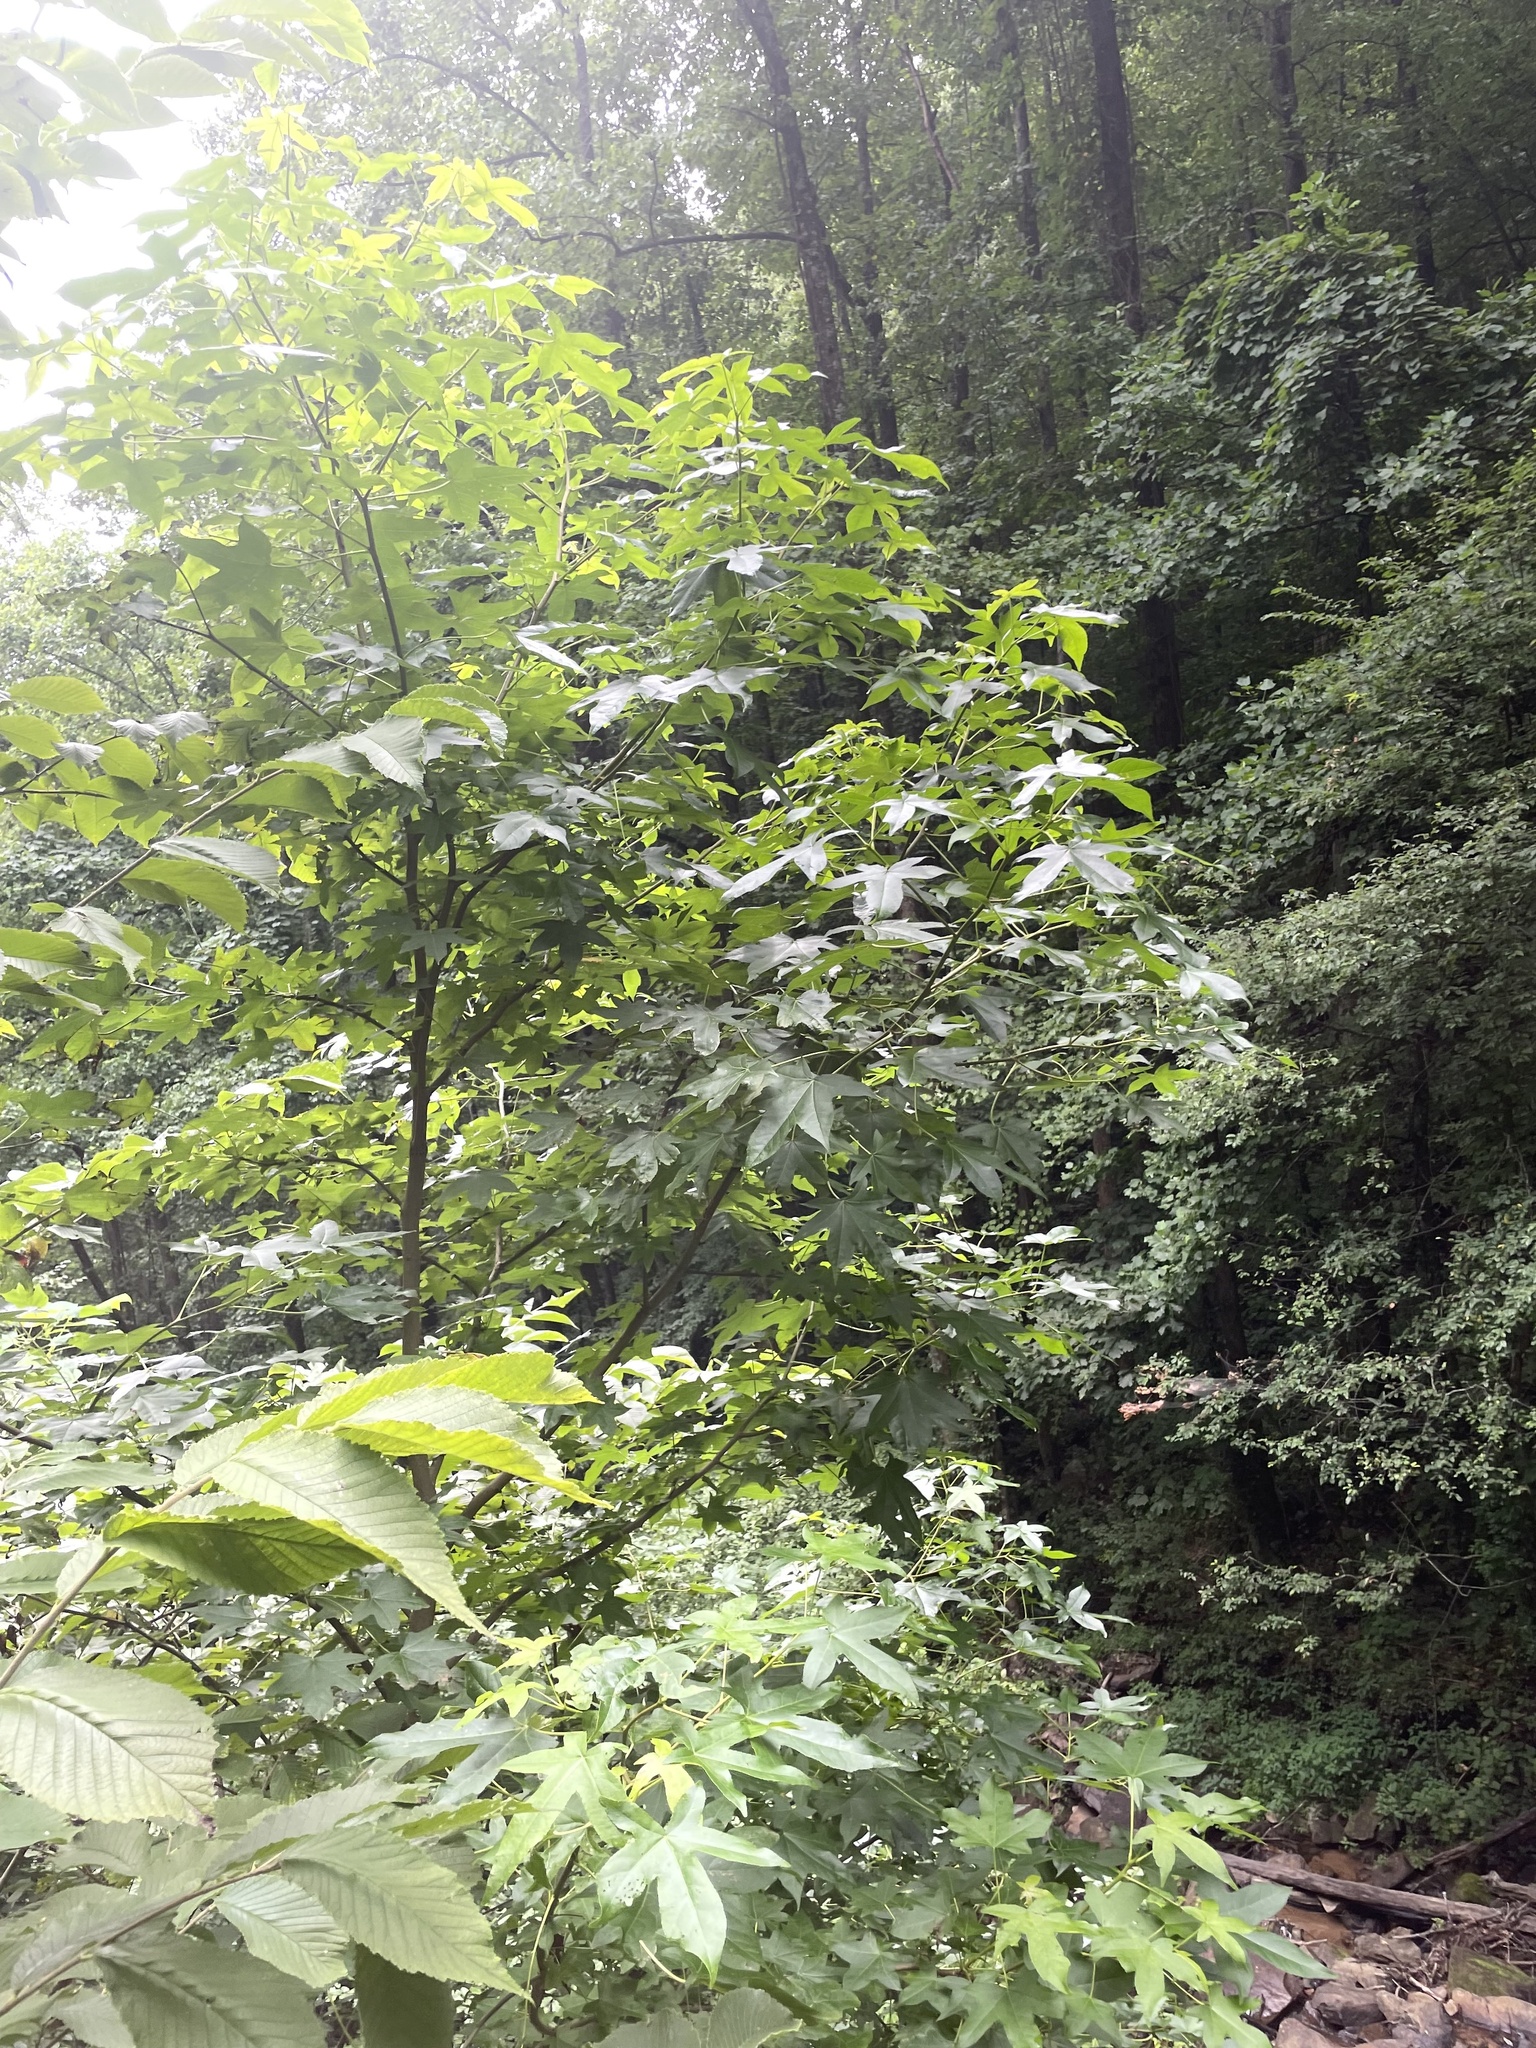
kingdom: Plantae
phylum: Tracheophyta
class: Magnoliopsida
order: Saxifragales
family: Altingiaceae
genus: Liquidambar
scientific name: Liquidambar styraciflua
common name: Sweet gum
